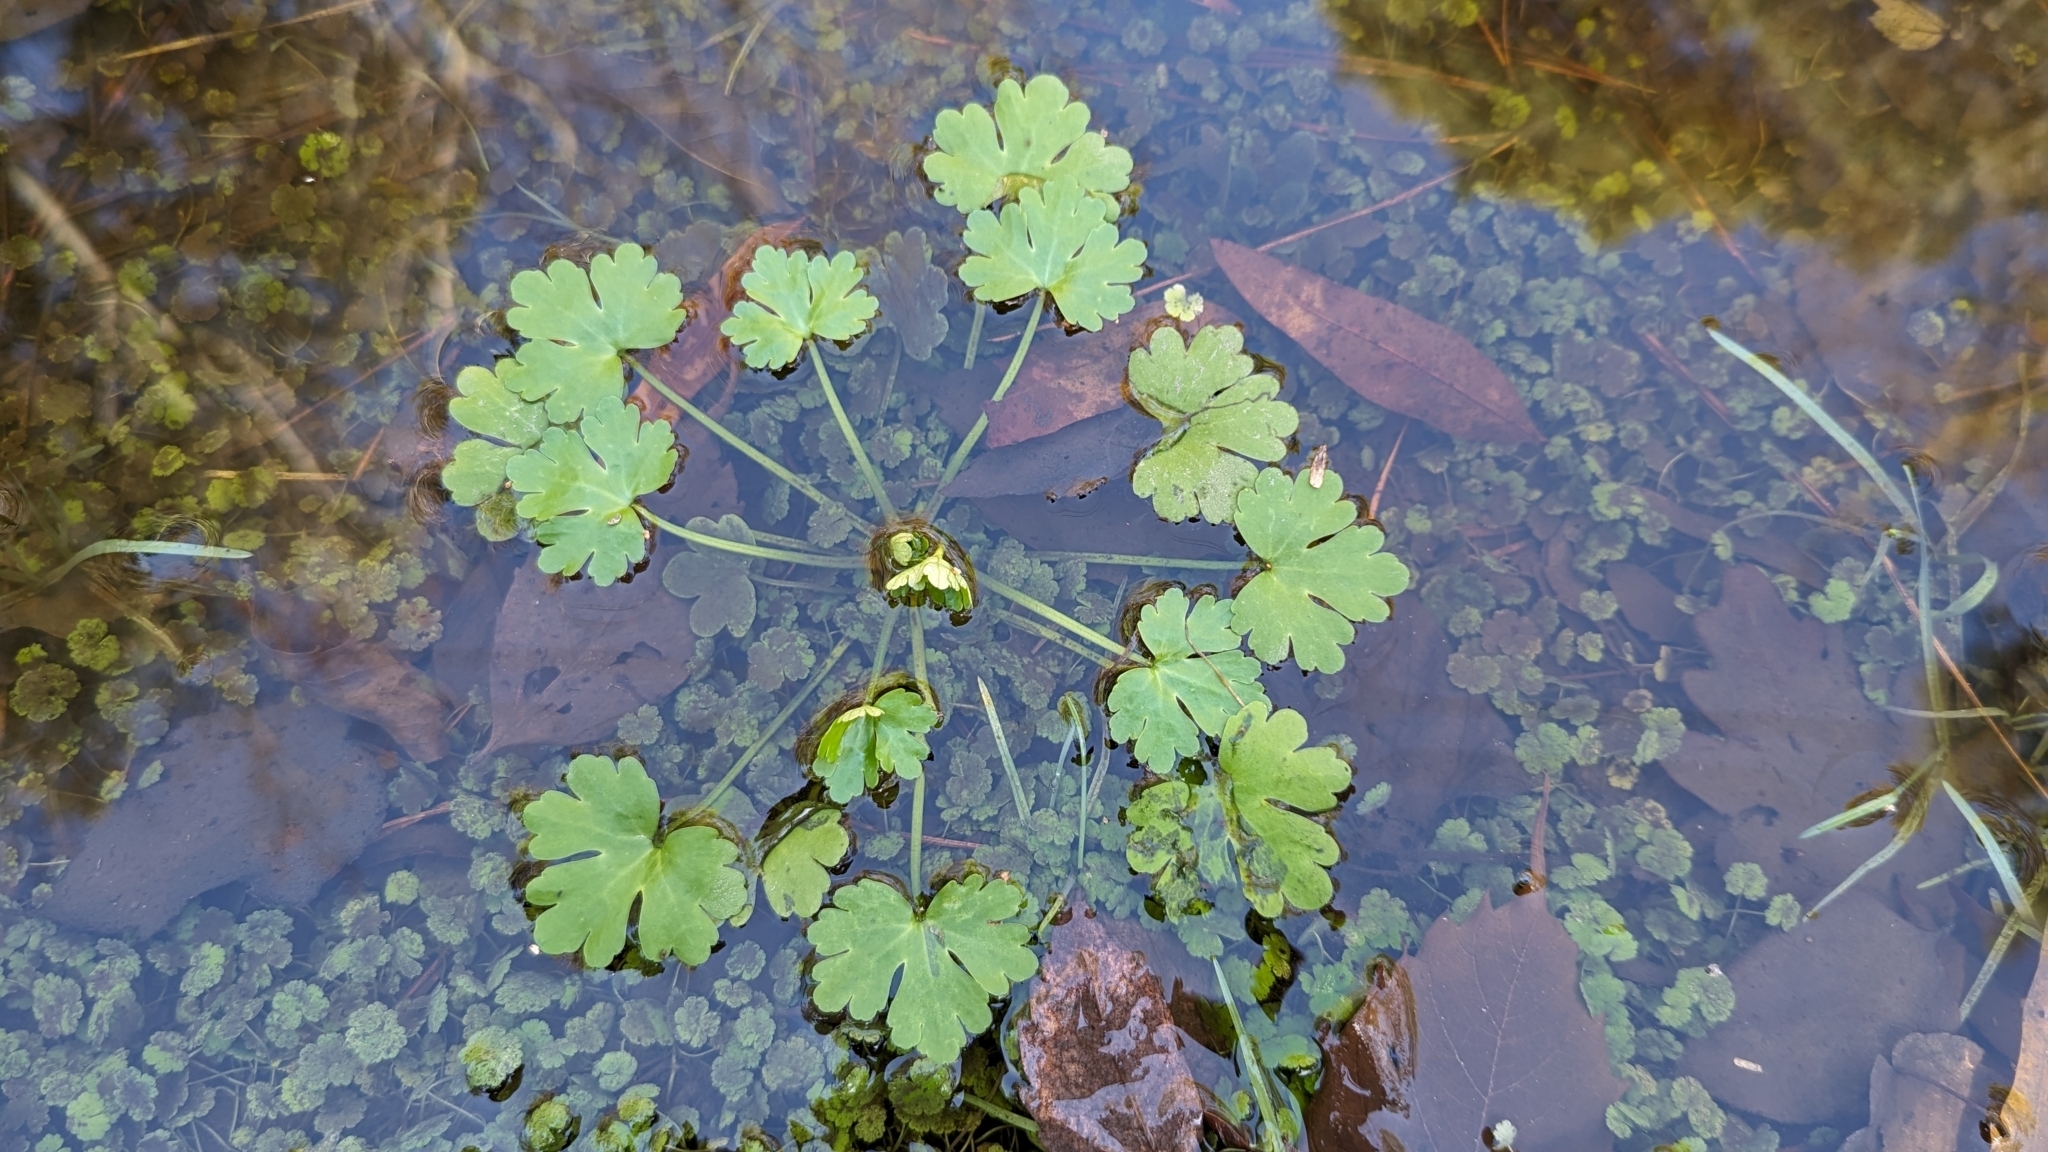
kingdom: Plantae
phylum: Tracheophyta
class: Magnoliopsida
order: Ranunculales
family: Ranunculaceae
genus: Ranunculus
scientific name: Ranunculus sceleratus
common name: Celery-leaved buttercup
